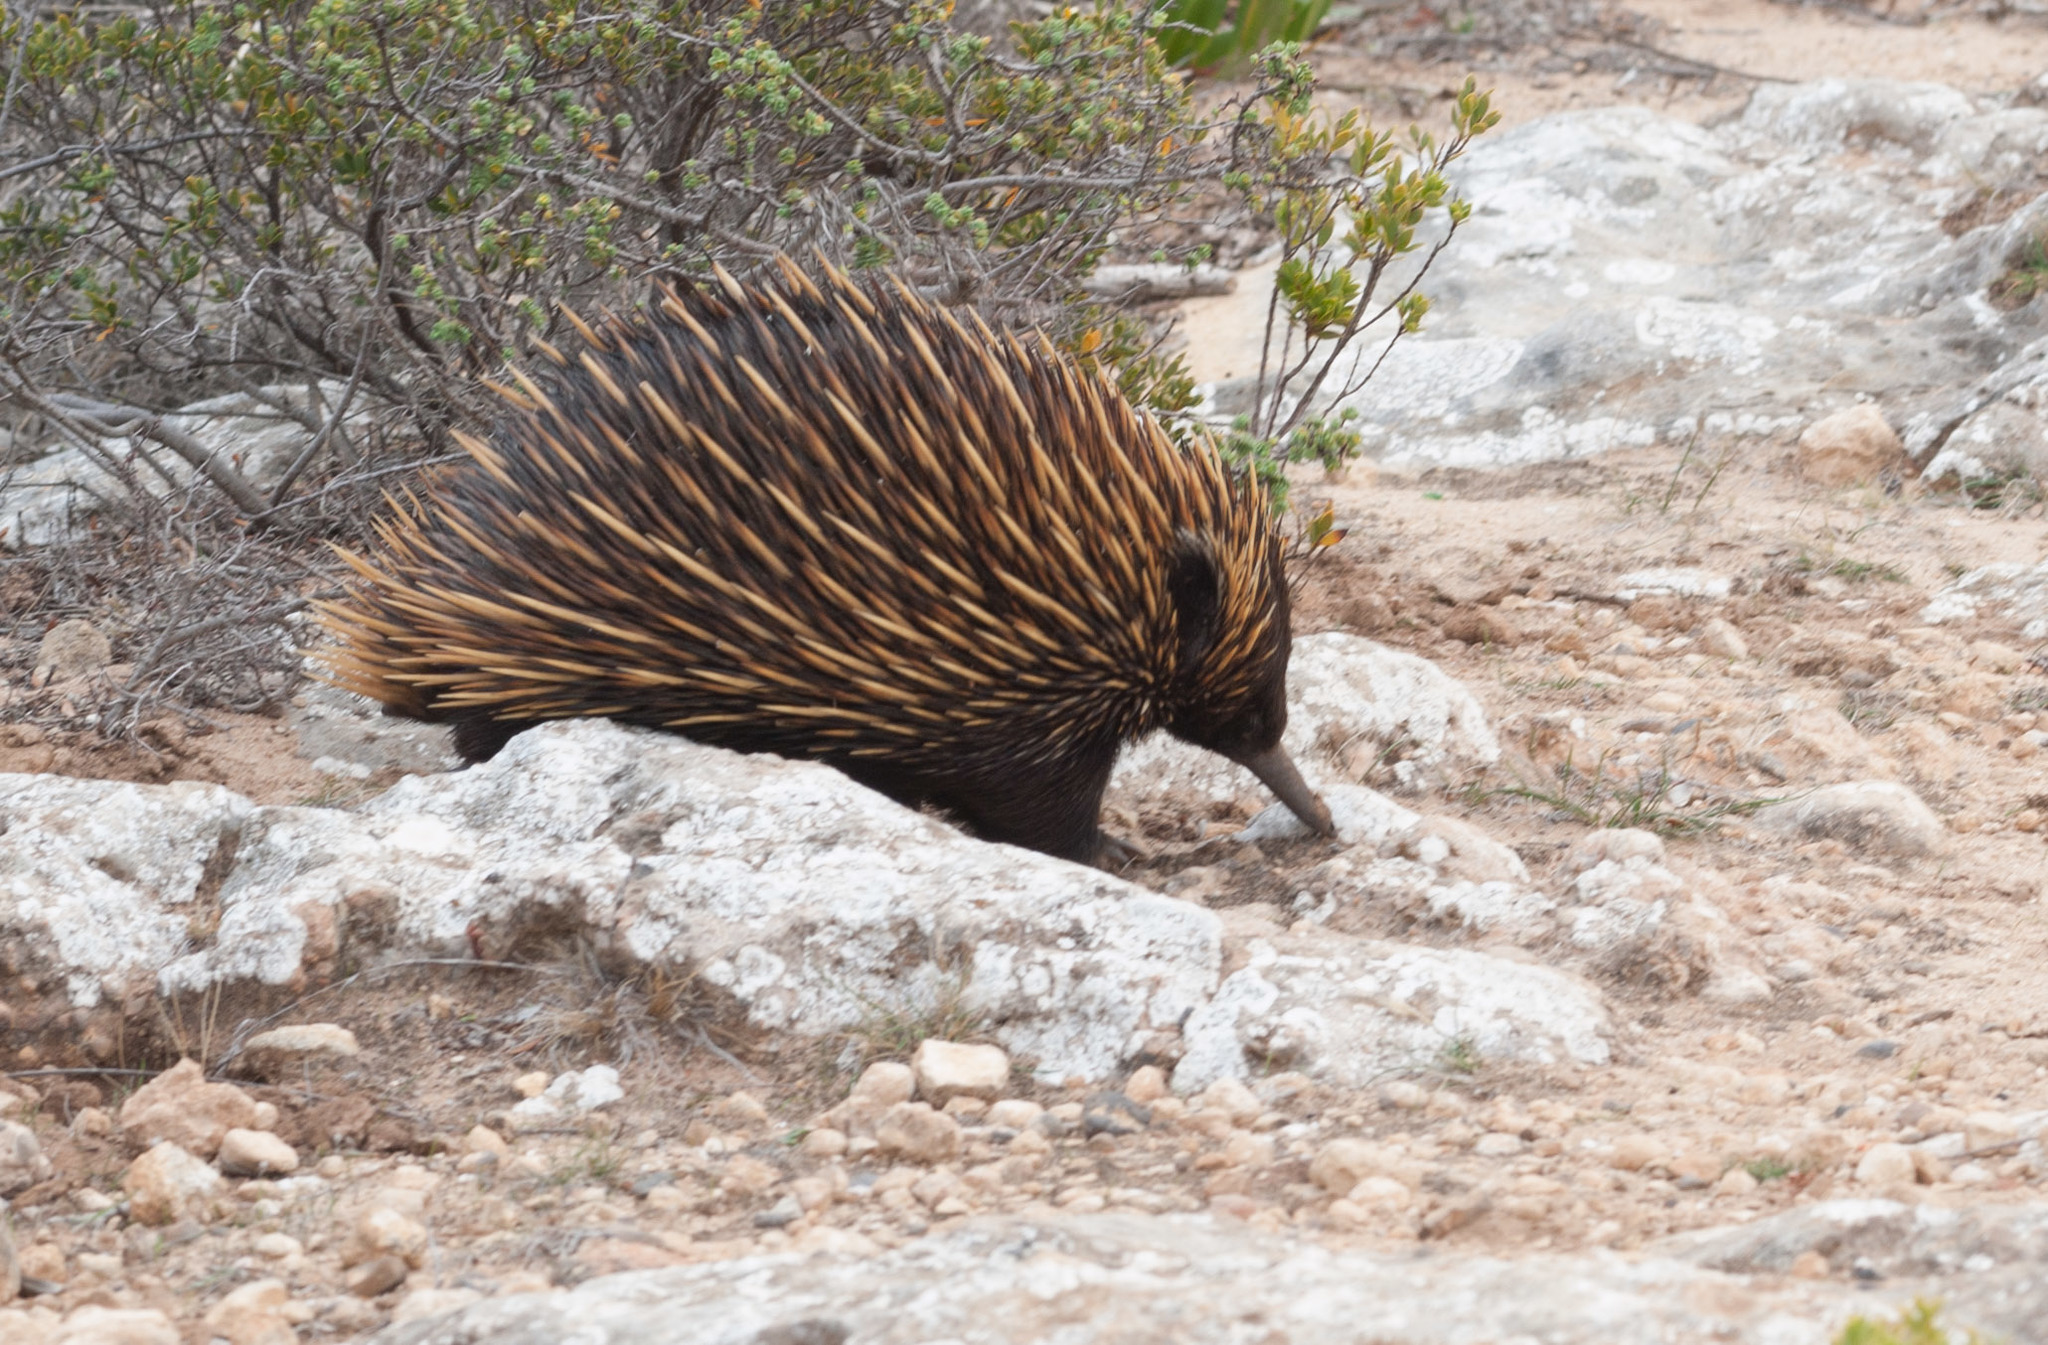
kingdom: Animalia
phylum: Chordata
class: Mammalia
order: Monotremata
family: Tachyglossidae
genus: Tachyglossus
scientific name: Tachyglossus aculeatus
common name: Short-beaked echidna
